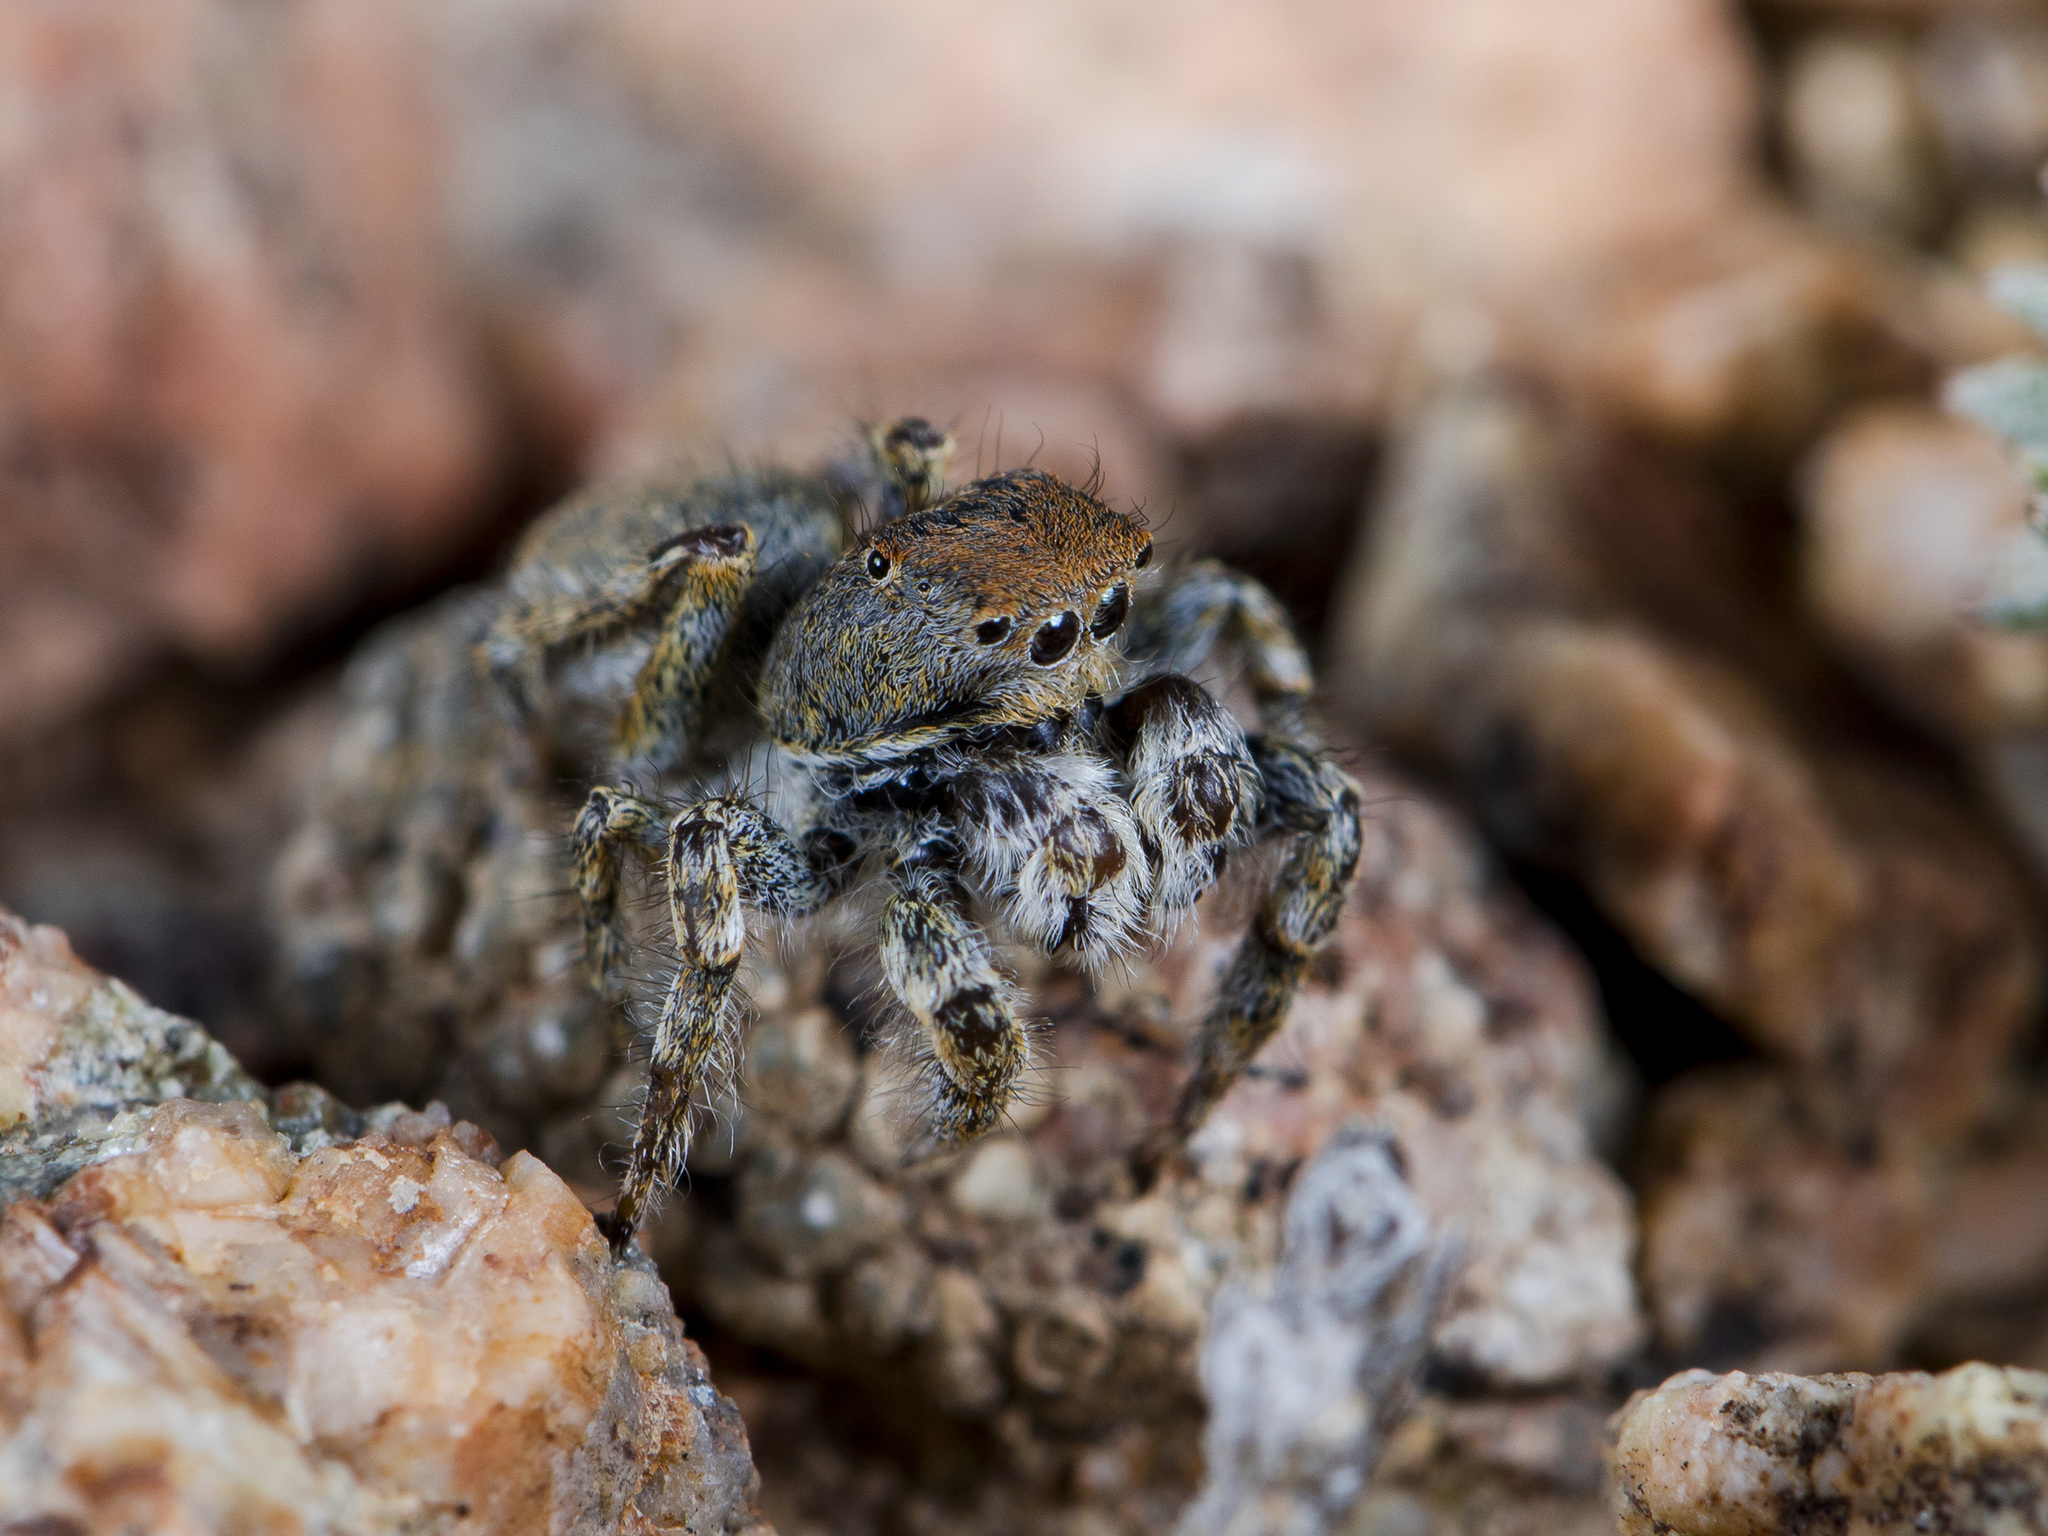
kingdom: Animalia
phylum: Arthropoda
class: Arachnida
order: Araneae
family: Salticidae
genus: Yllenus
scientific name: Yllenus charynensis
